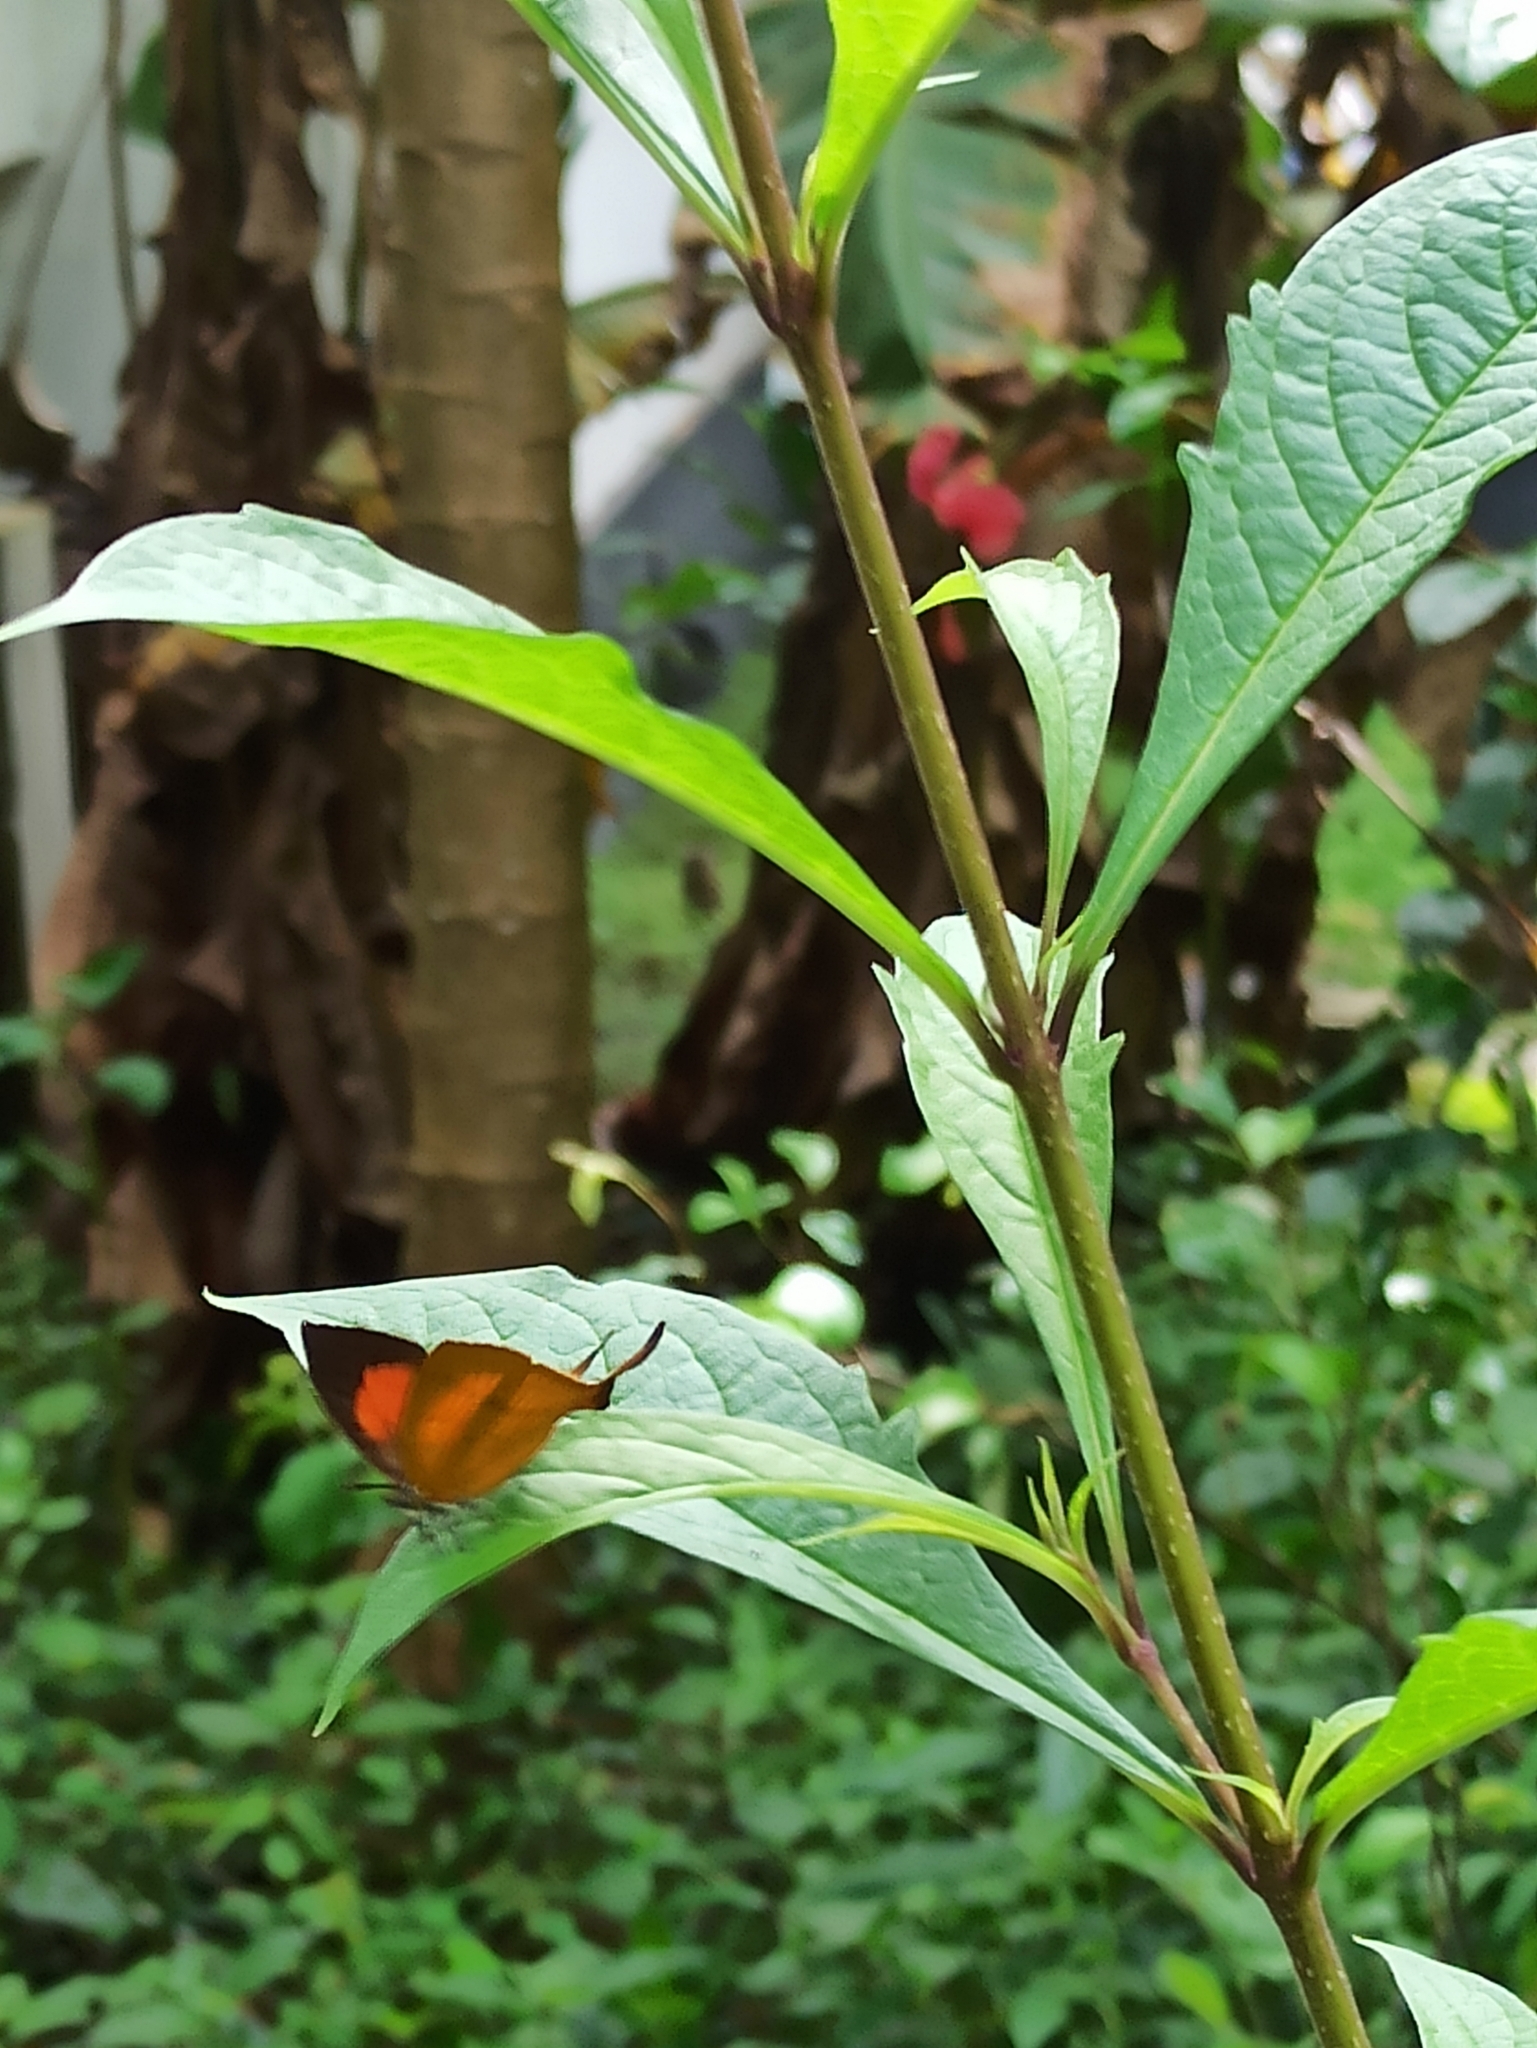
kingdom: Animalia
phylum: Arthropoda
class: Insecta
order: Lepidoptera
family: Lycaenidae
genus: Loxura
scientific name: Loxura atymnus
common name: Common yamfly
